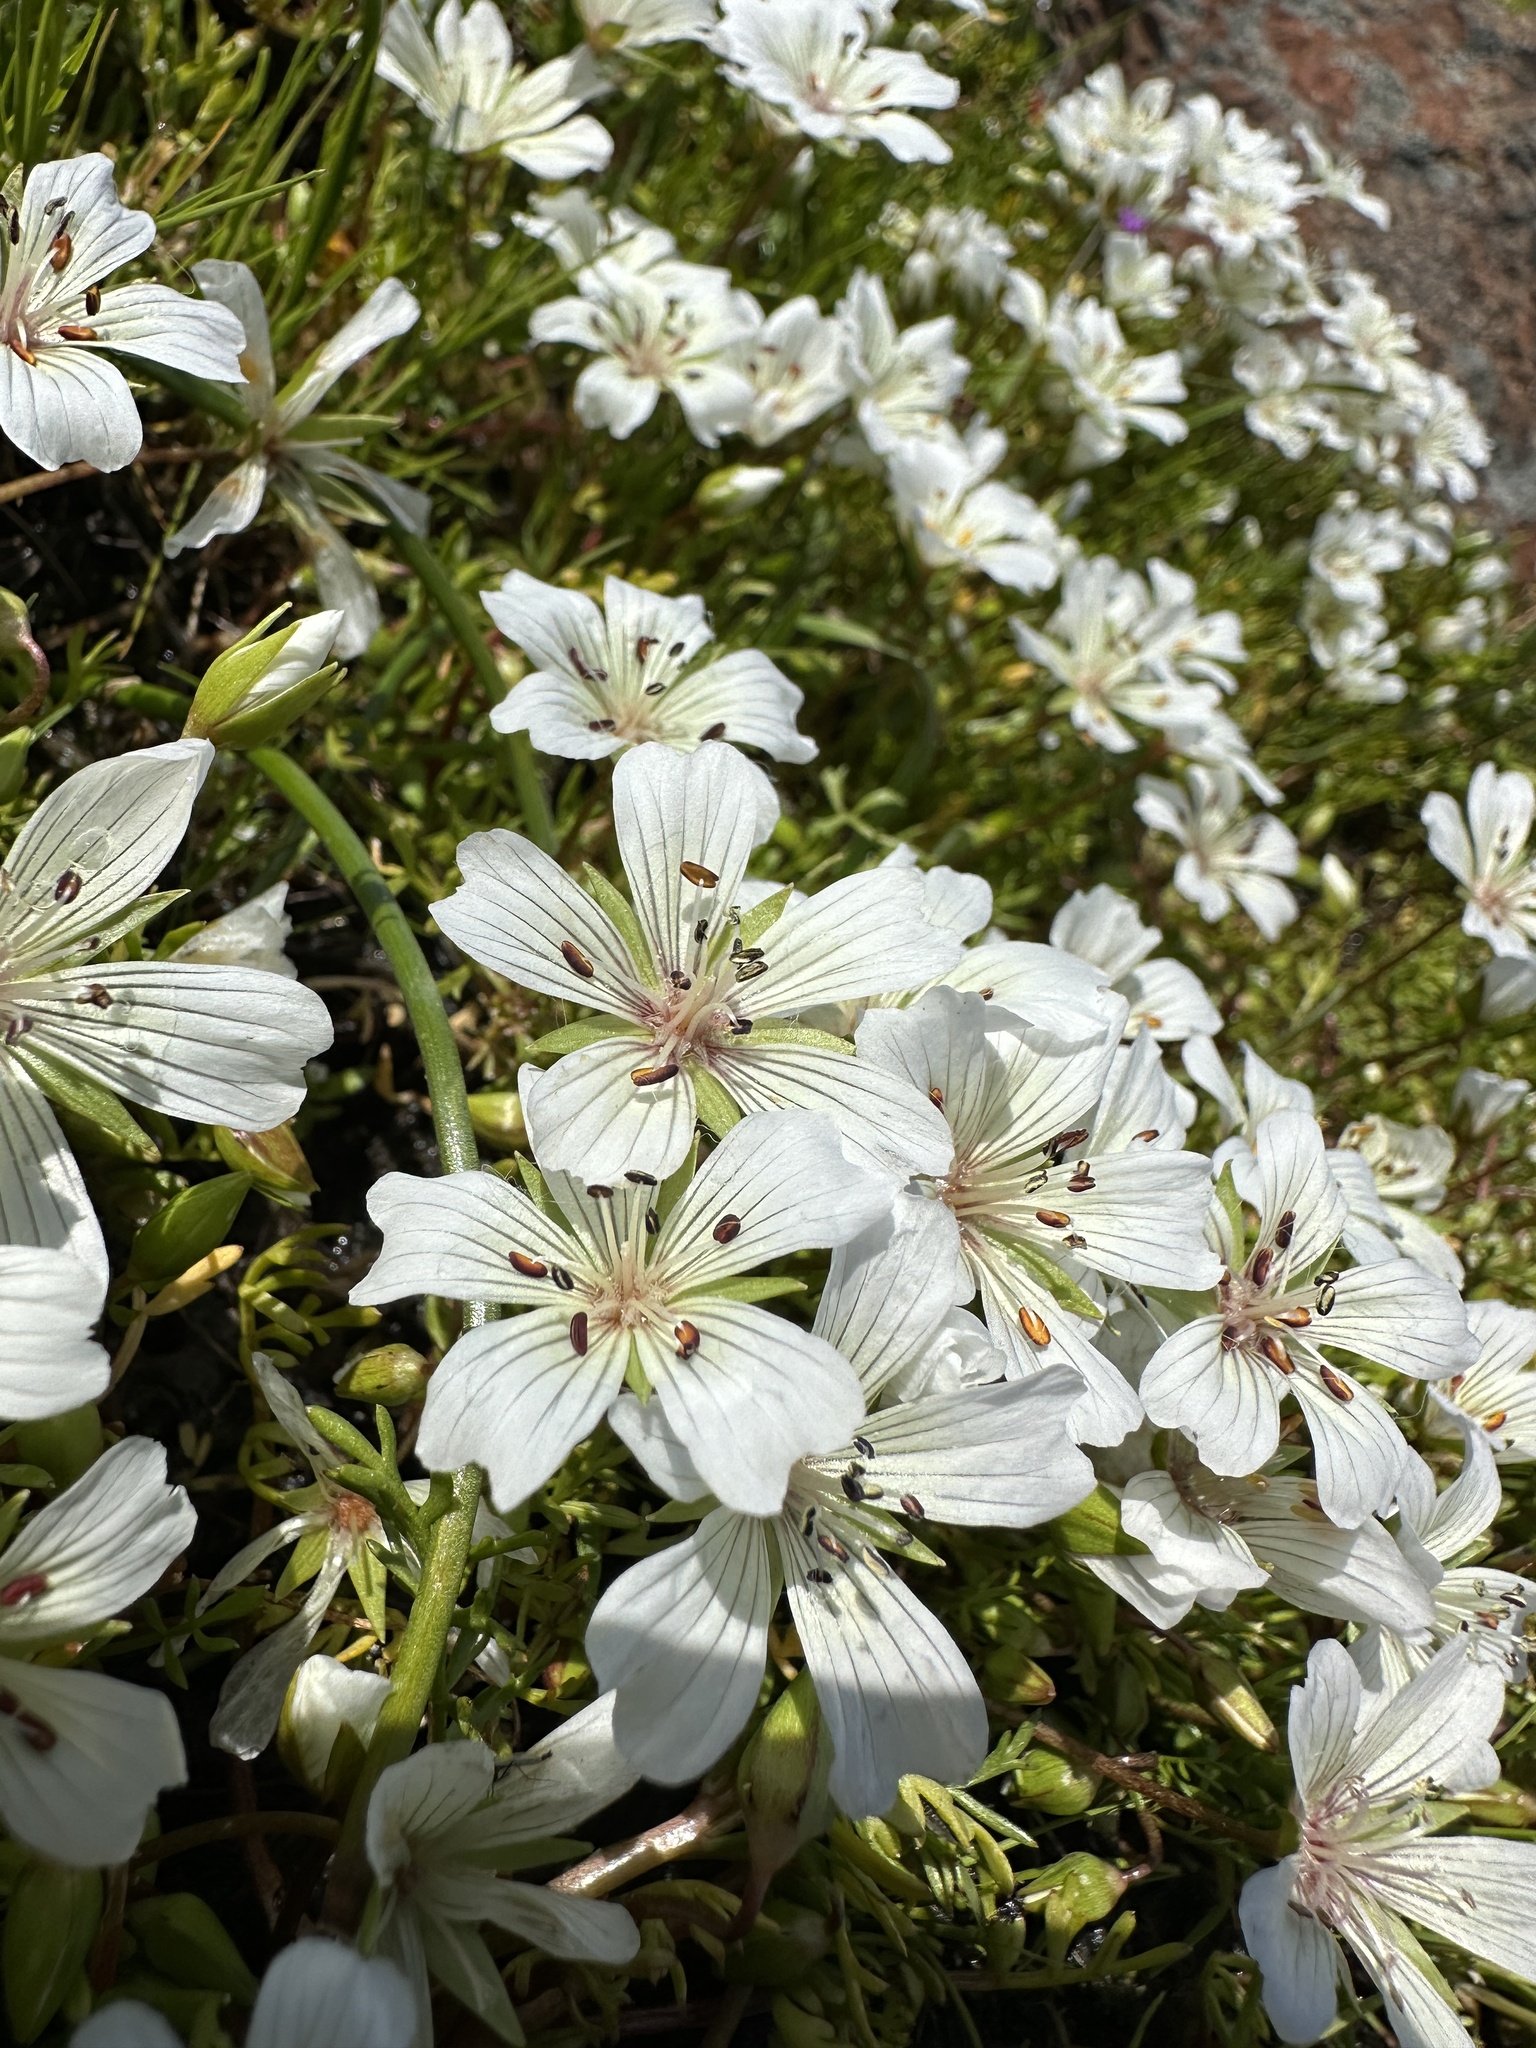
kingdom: Plantae
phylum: Tracheophyta
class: Magnoliopsida
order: Brassicales
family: Limnanthaceae
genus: Limnanthes
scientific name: Limnanthes douglasii
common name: Meadow-foam
